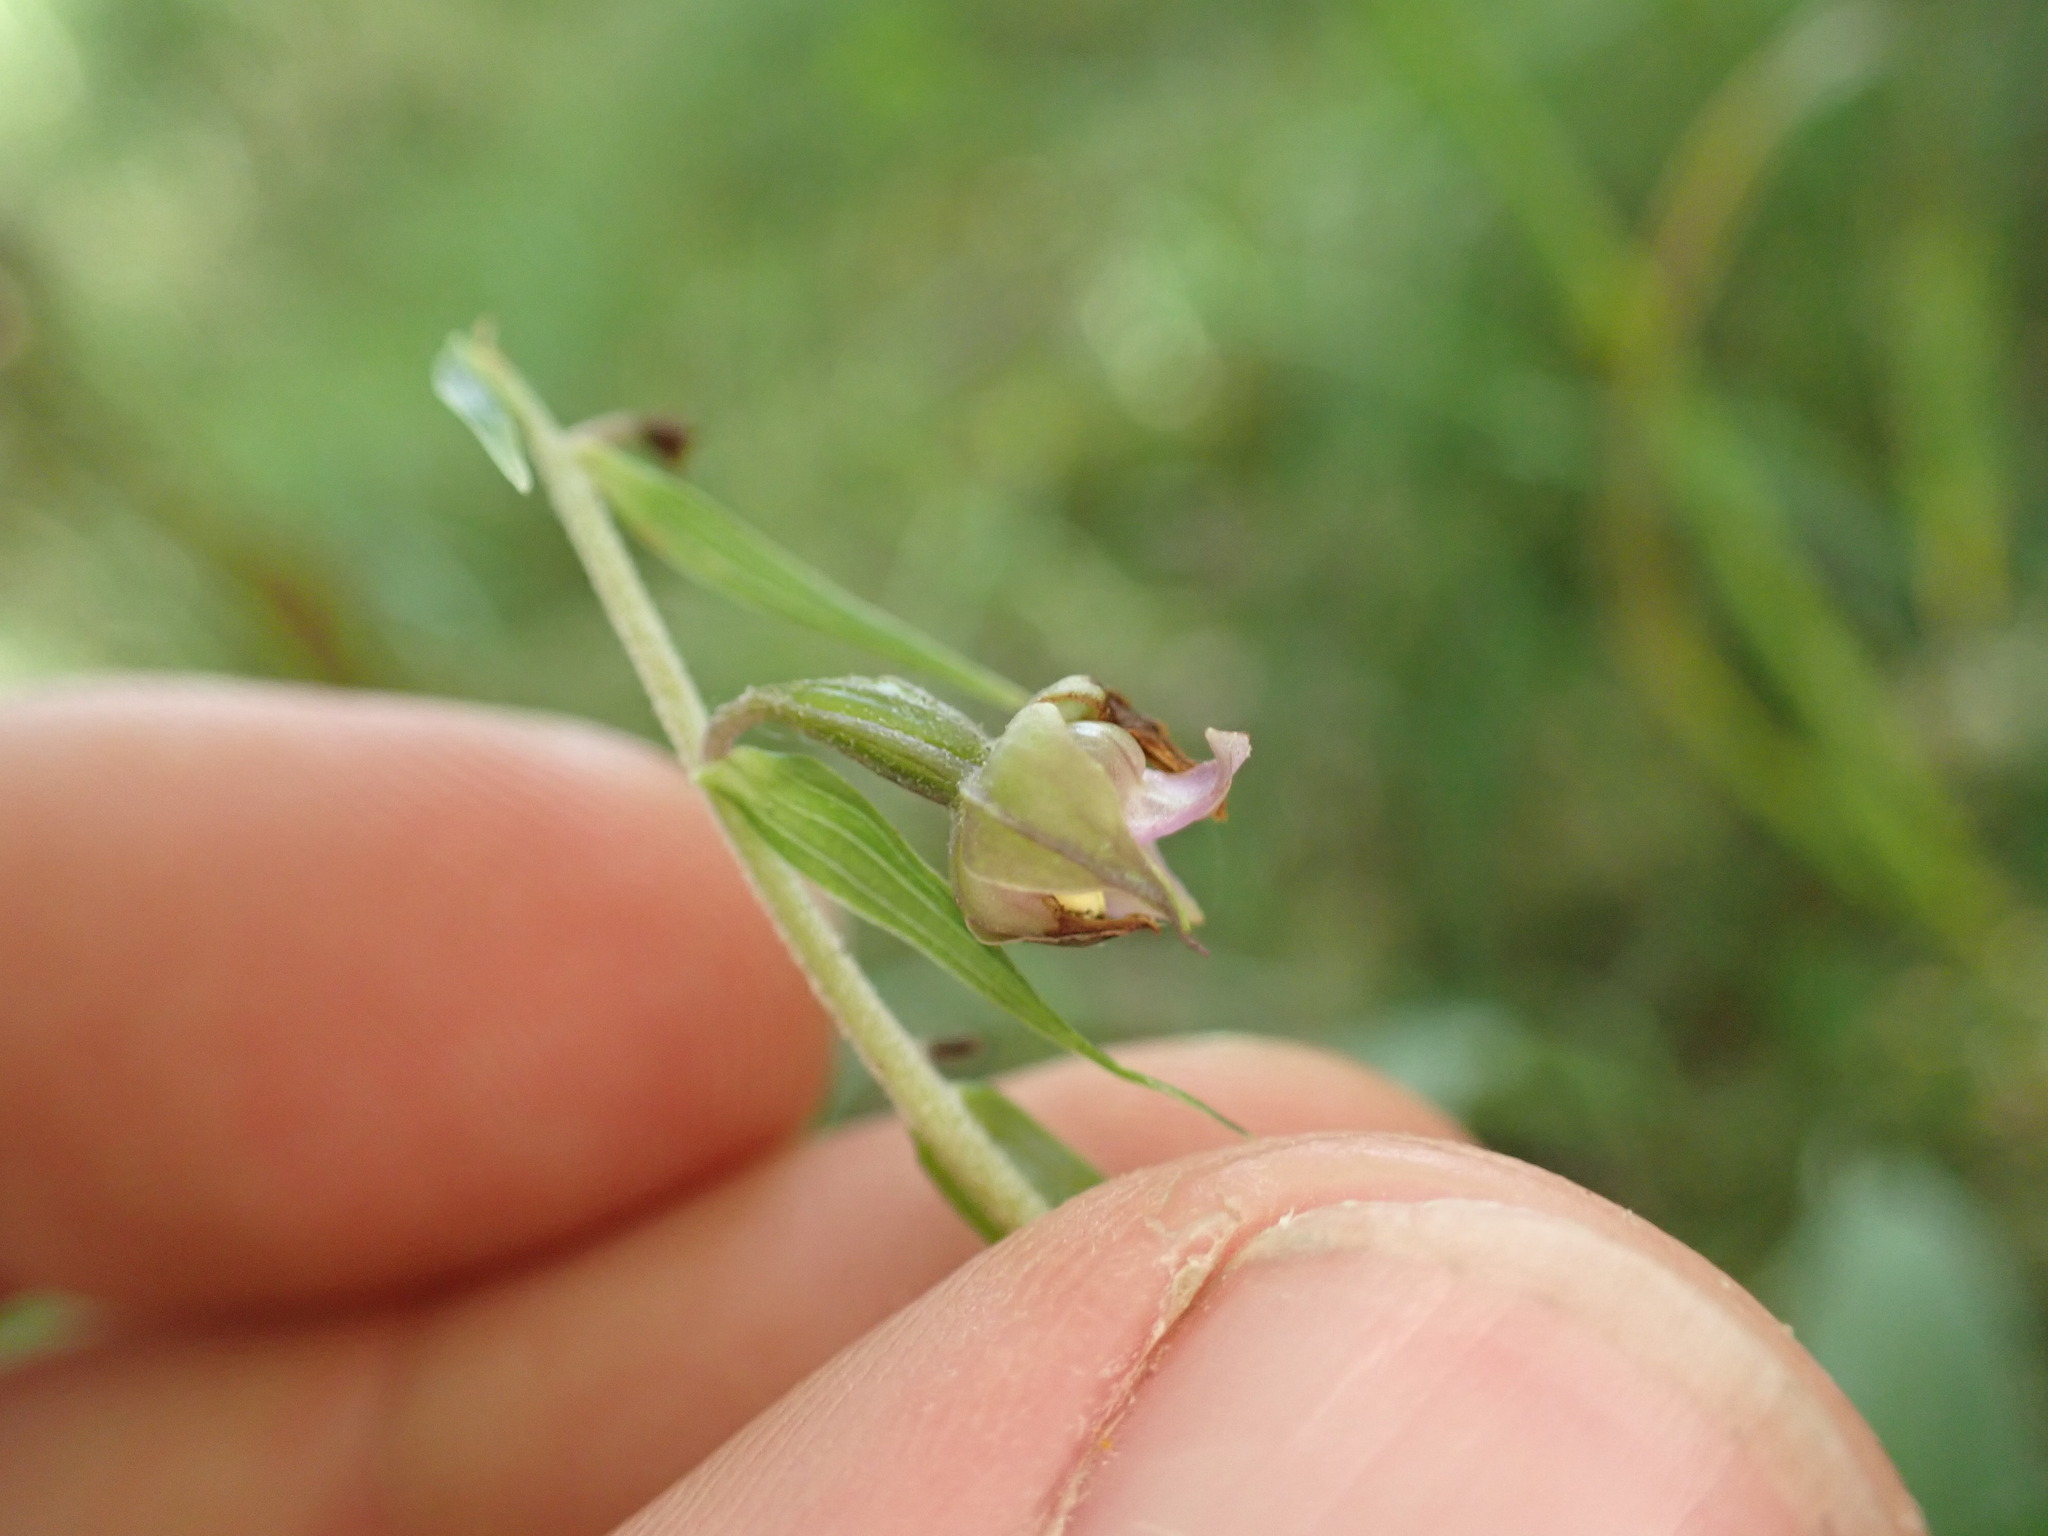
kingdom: Plantae
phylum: Tracheophyta
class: Liliopsida
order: Asparagales
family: Orchidaceae
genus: Epipactis
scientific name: Epipactis helleborine
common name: Broad-leaved helleborine
